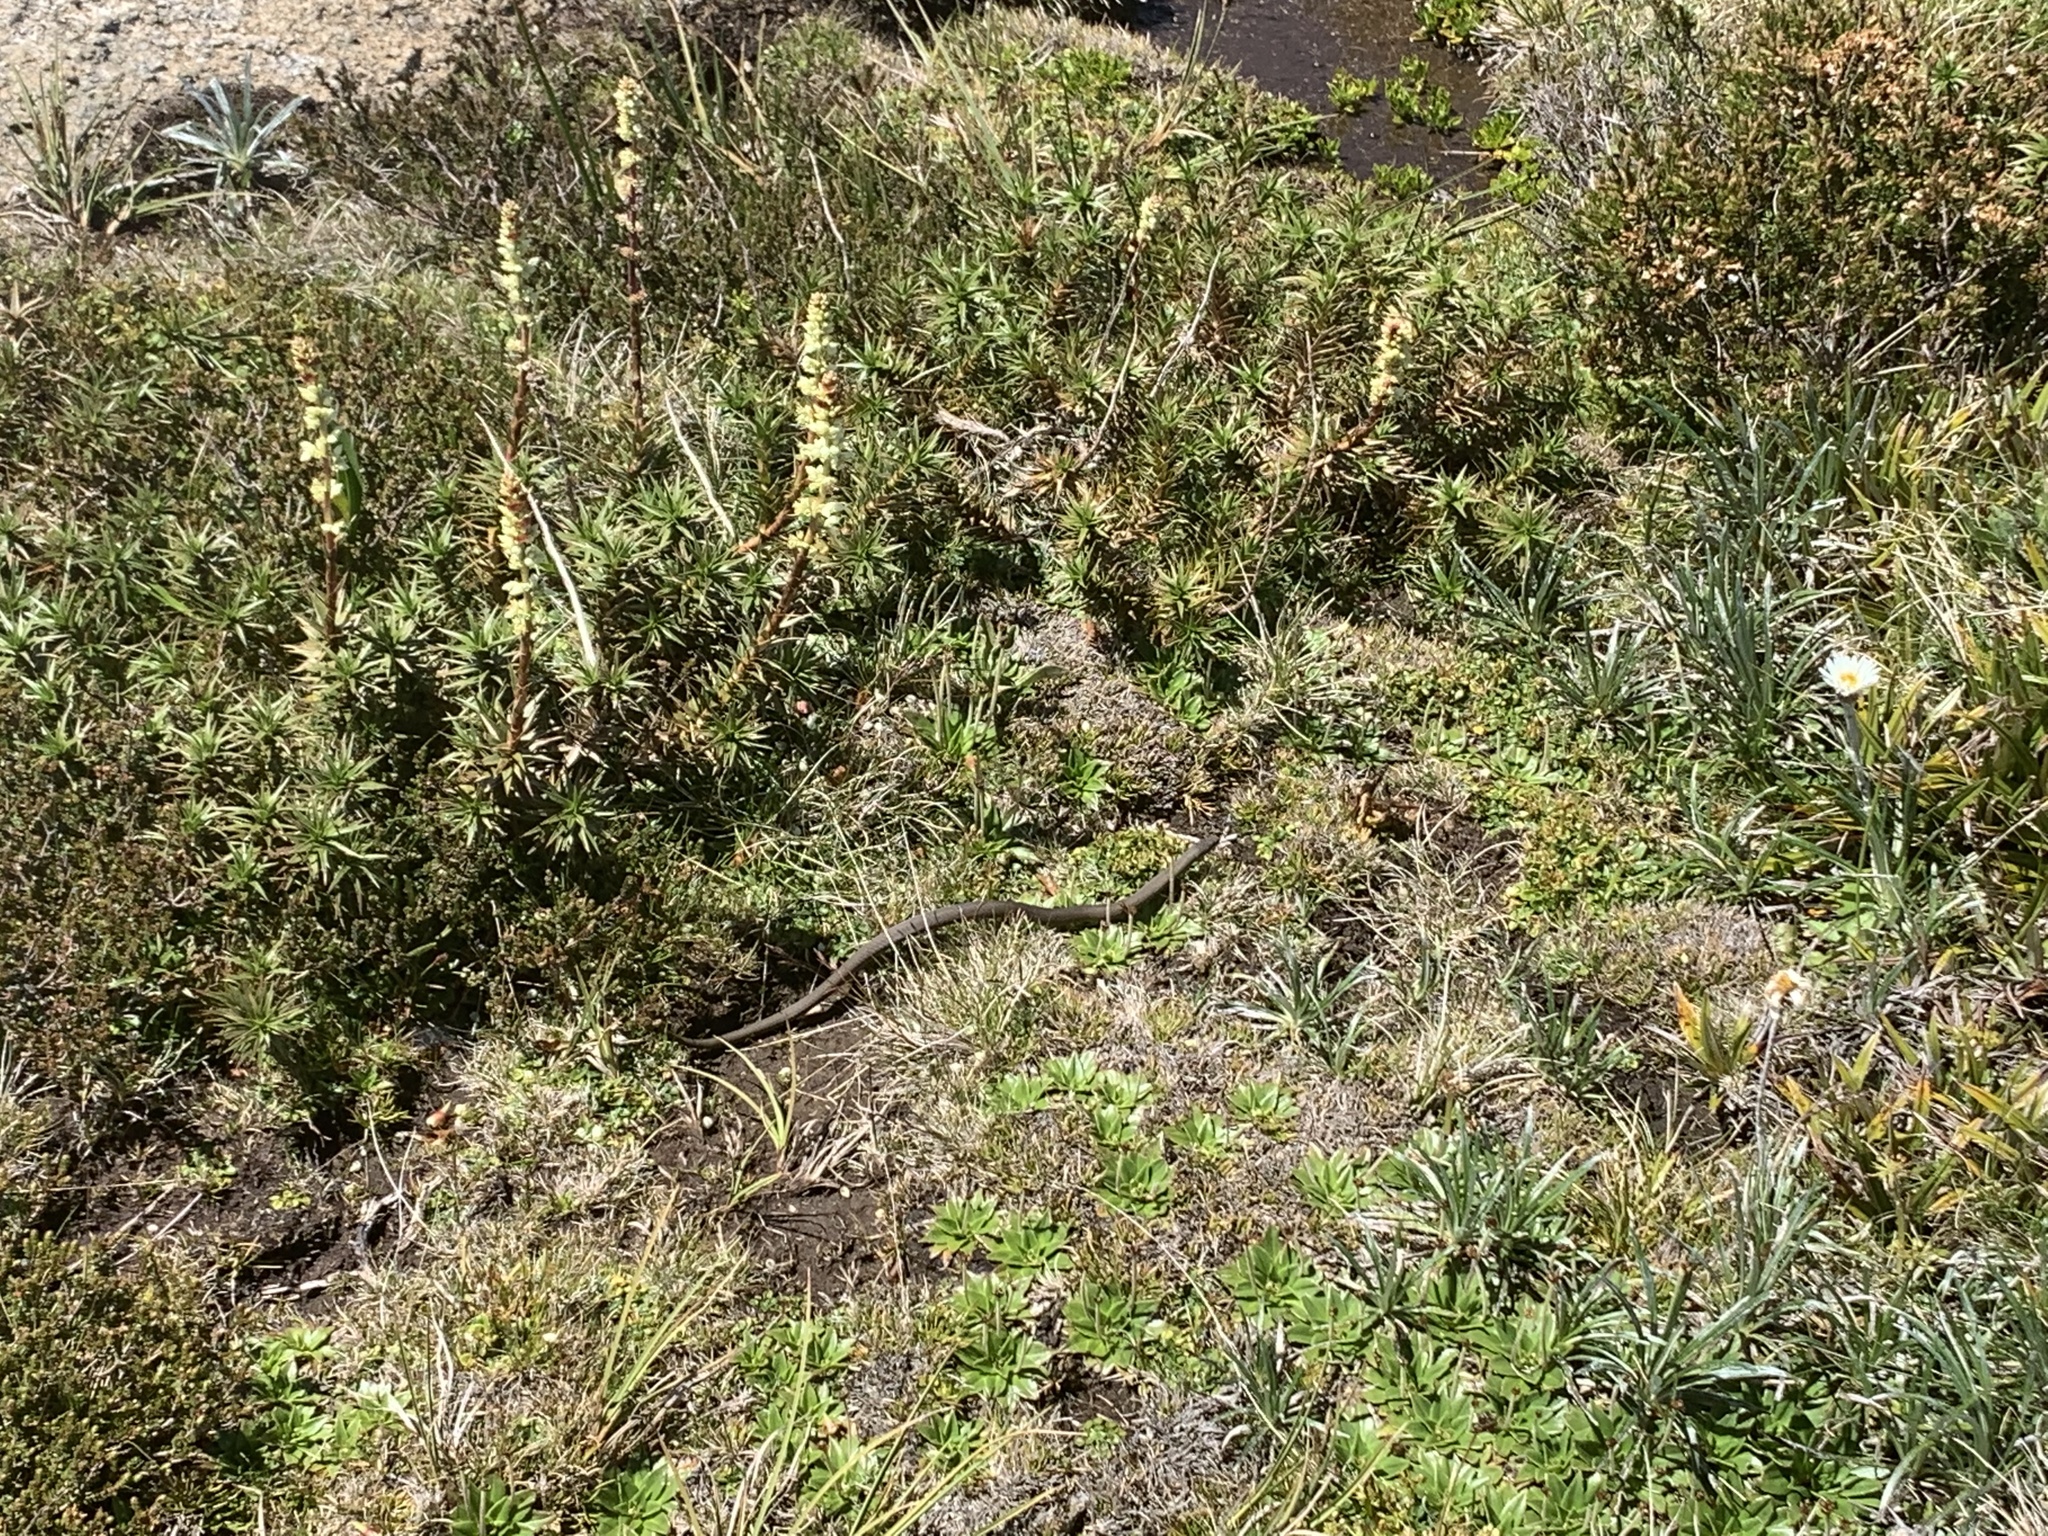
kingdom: Animalia
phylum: Chordata
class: Squamata
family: Elapidae
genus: Drysdalia
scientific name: Drysdalia coronoides
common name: White-lipped snake
